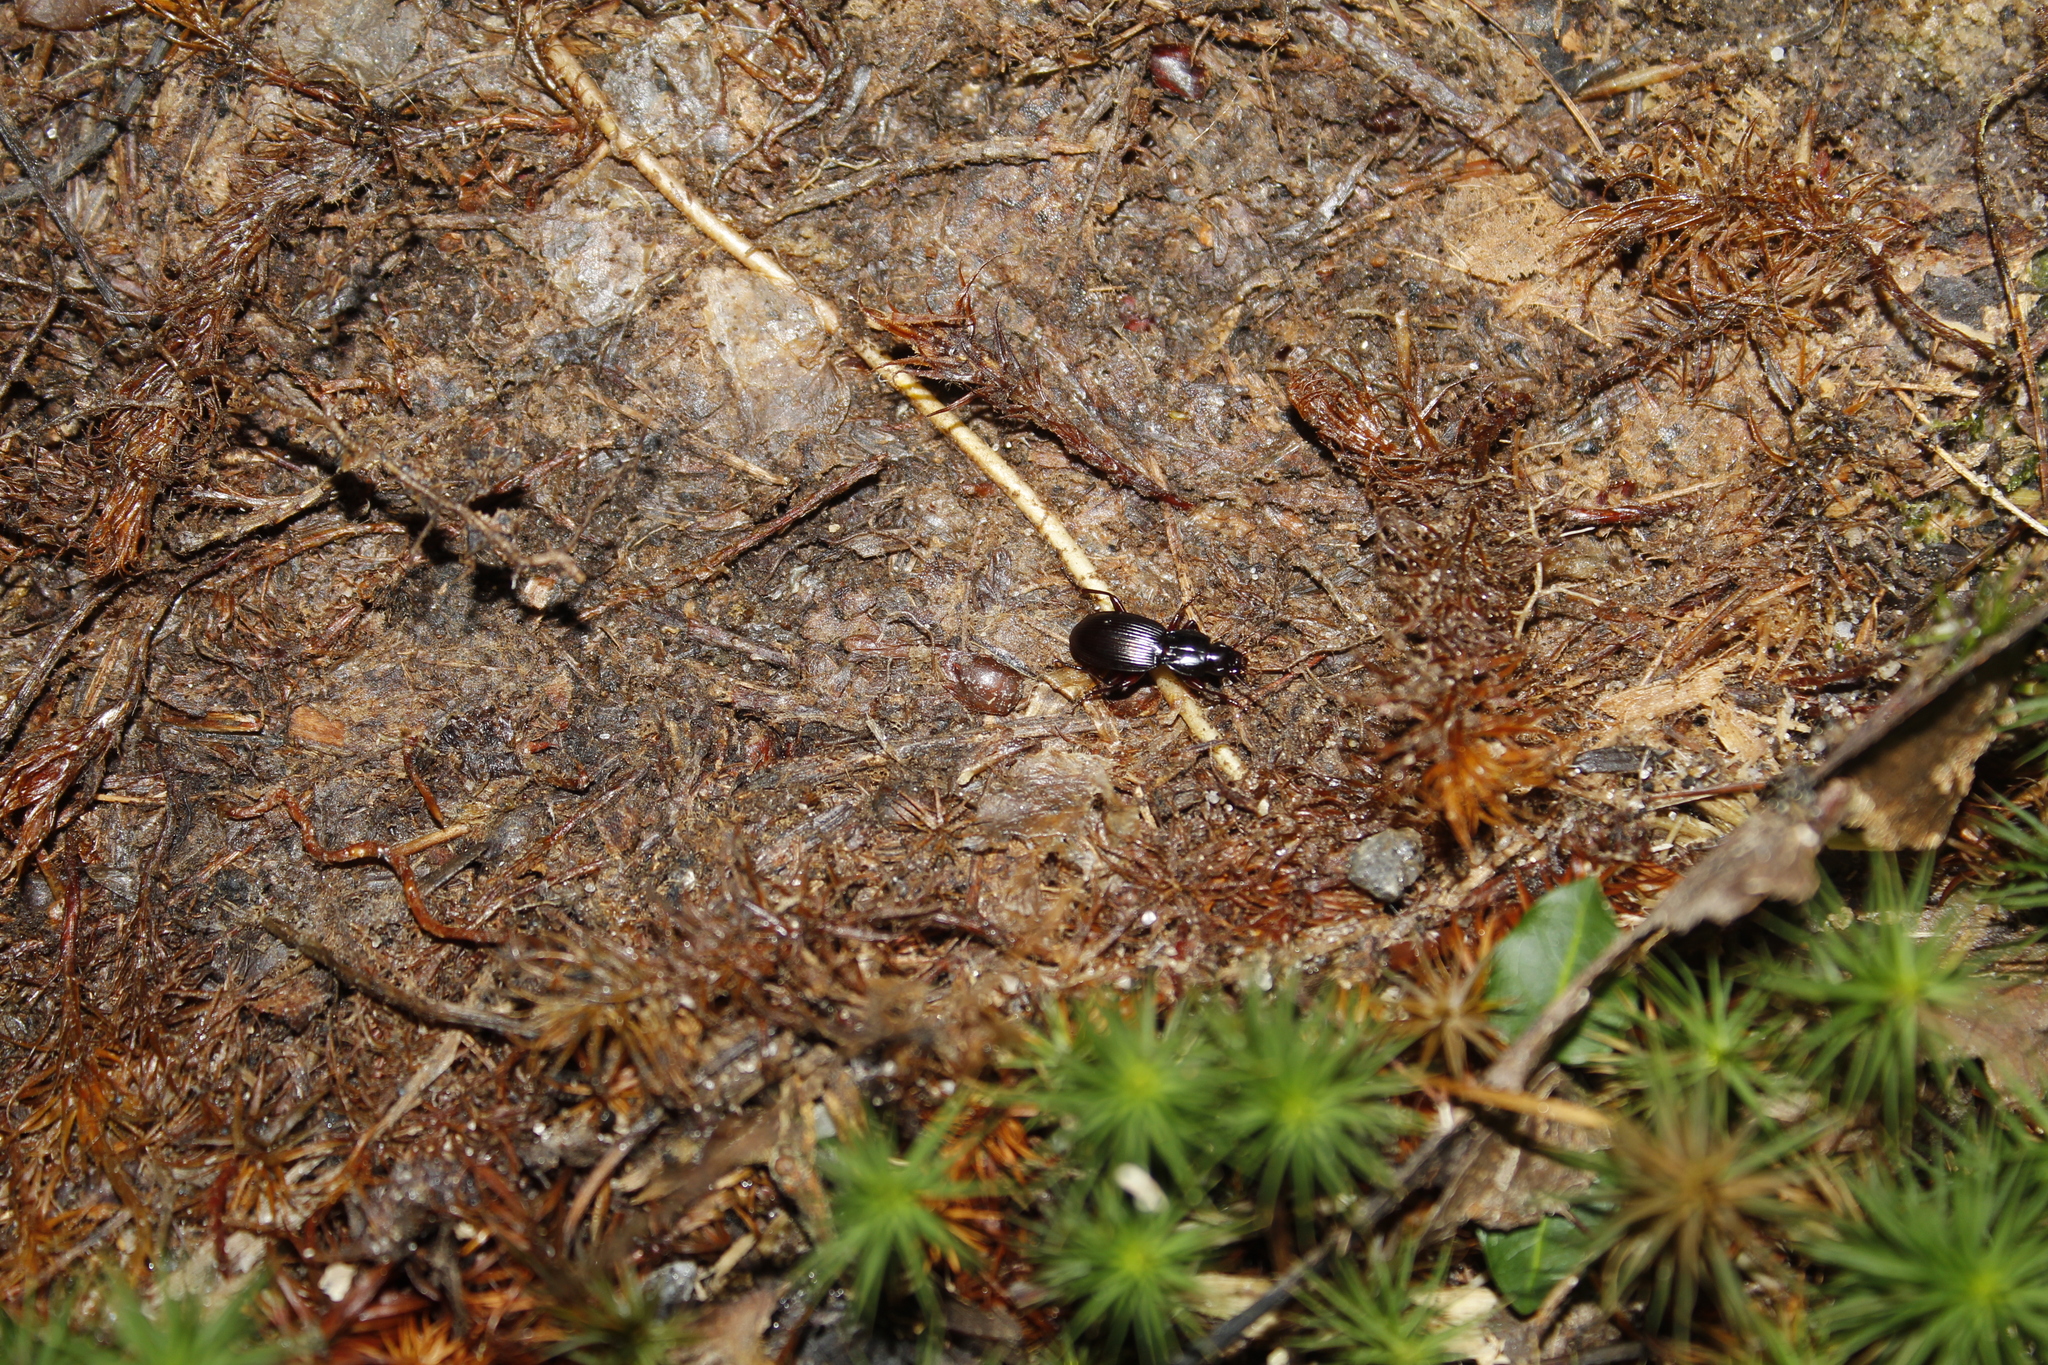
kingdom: Animalia
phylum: Arthropoda
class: Insecta
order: Coleoptera
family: Carabidae
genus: Pterostichus
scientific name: Pterostichus
